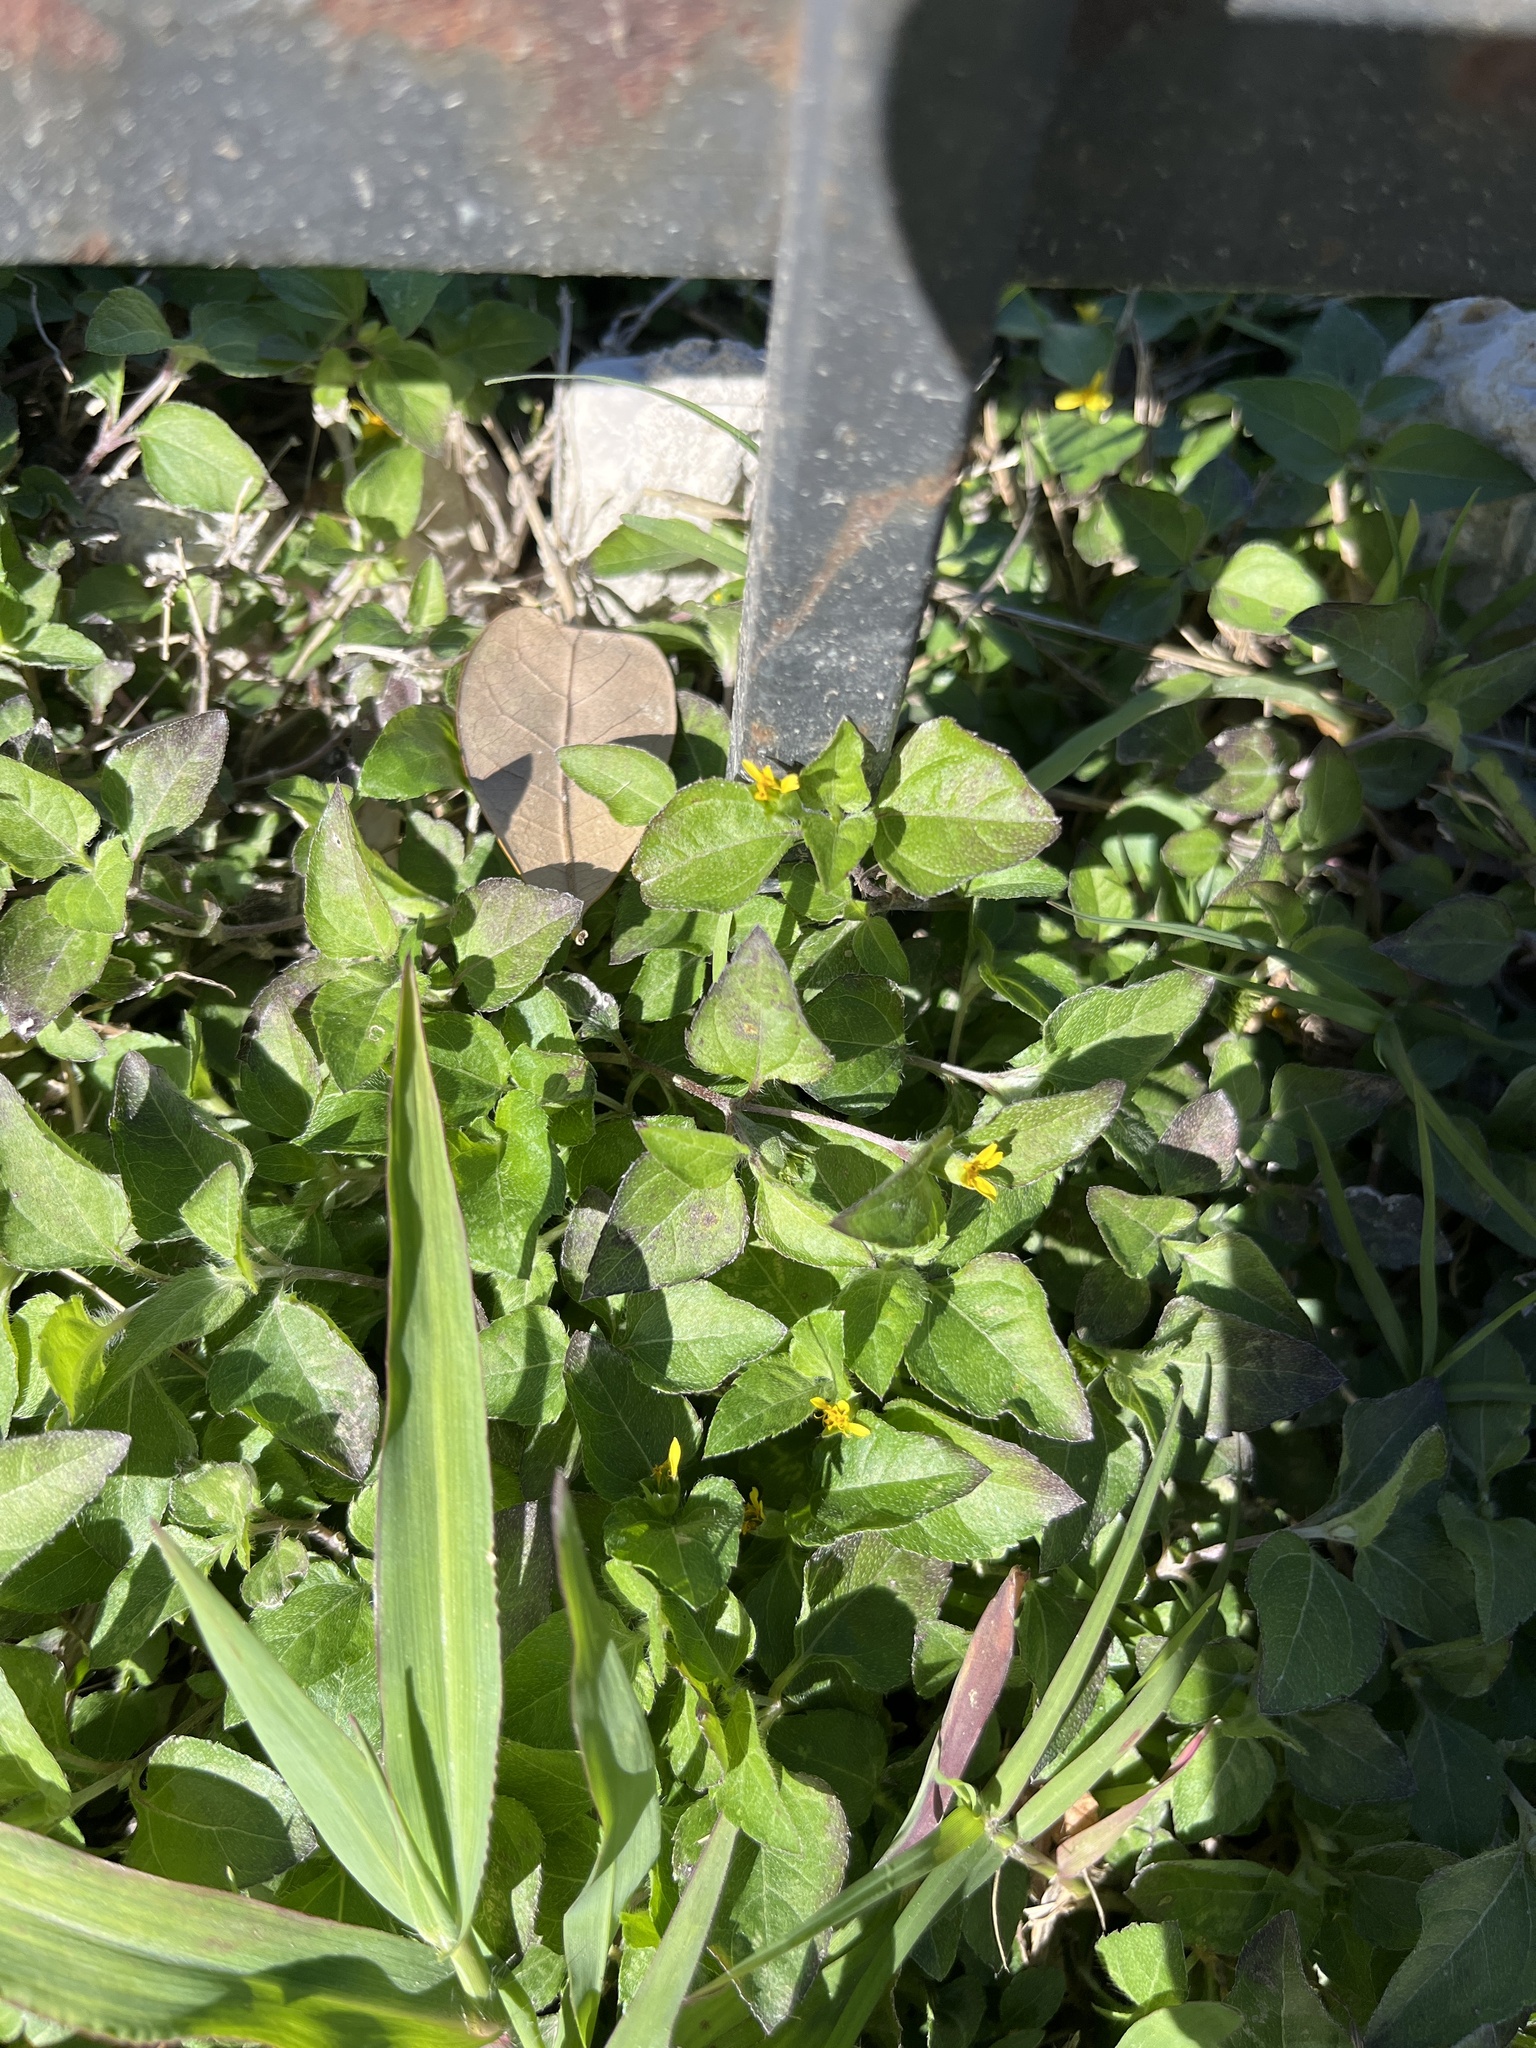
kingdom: Plantae
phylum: Tracheophyta
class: Magnoliopsida
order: Asterales
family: Asteraceae
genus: Calyptocarpus
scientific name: Calyptocarpus vialis
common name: Straggler daisy
